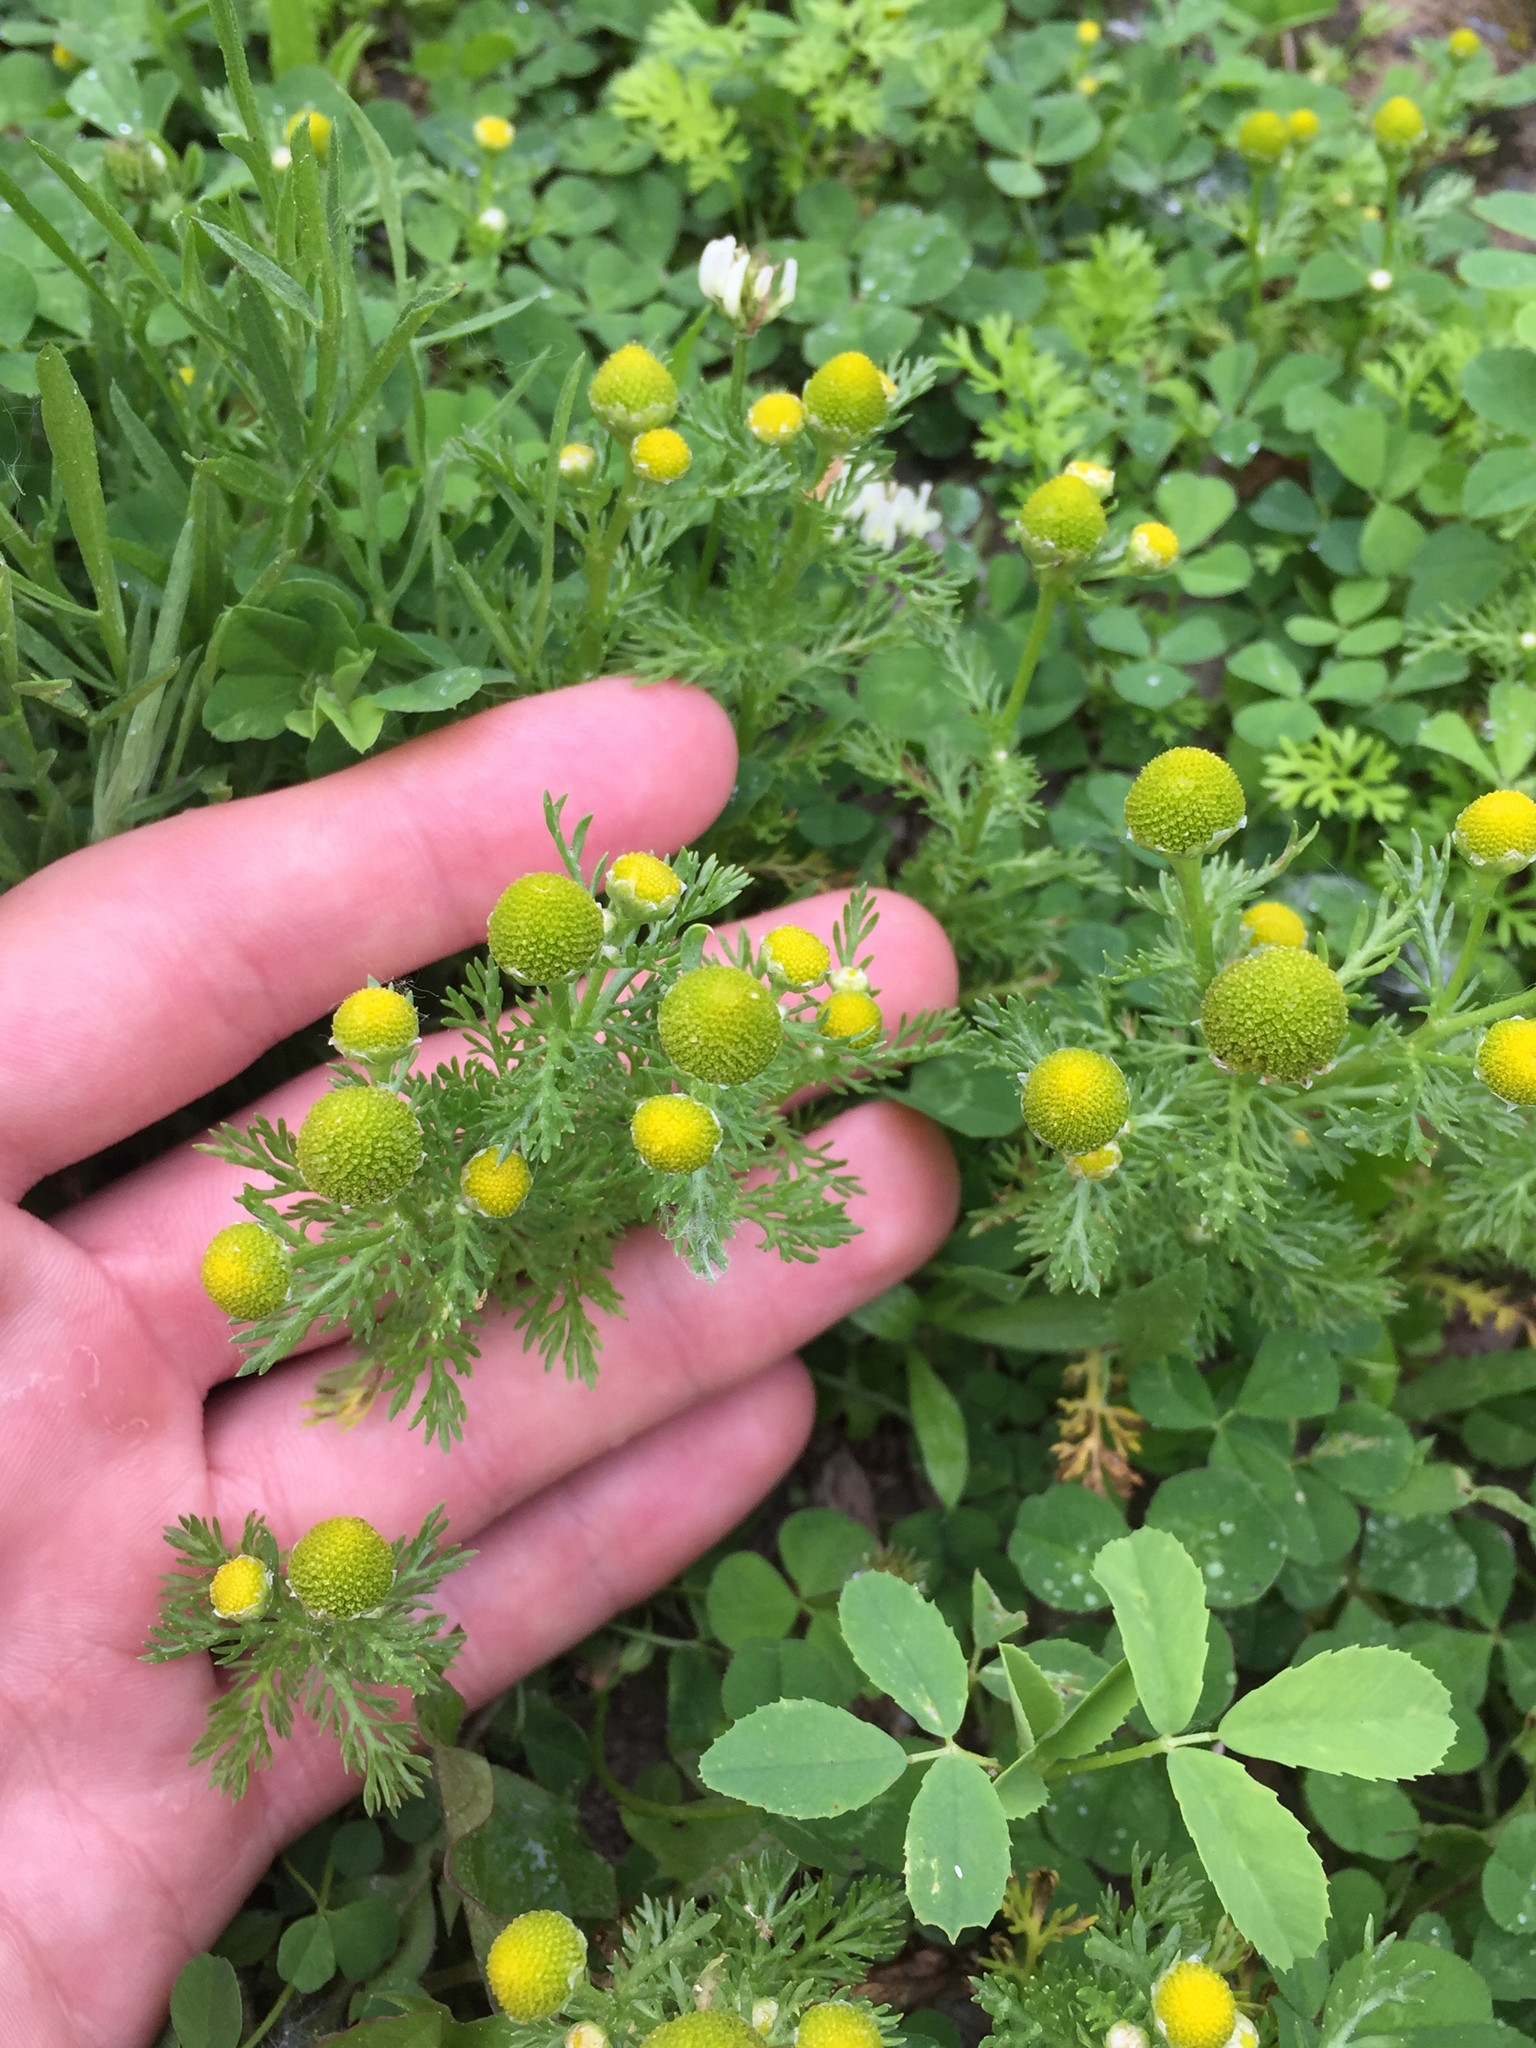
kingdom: Plantae
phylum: Tracheophyta
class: Magnoliopsida
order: Asterales
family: Asteraceae
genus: Matricaria
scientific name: Matricaria discoidea
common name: Disc mayweed
